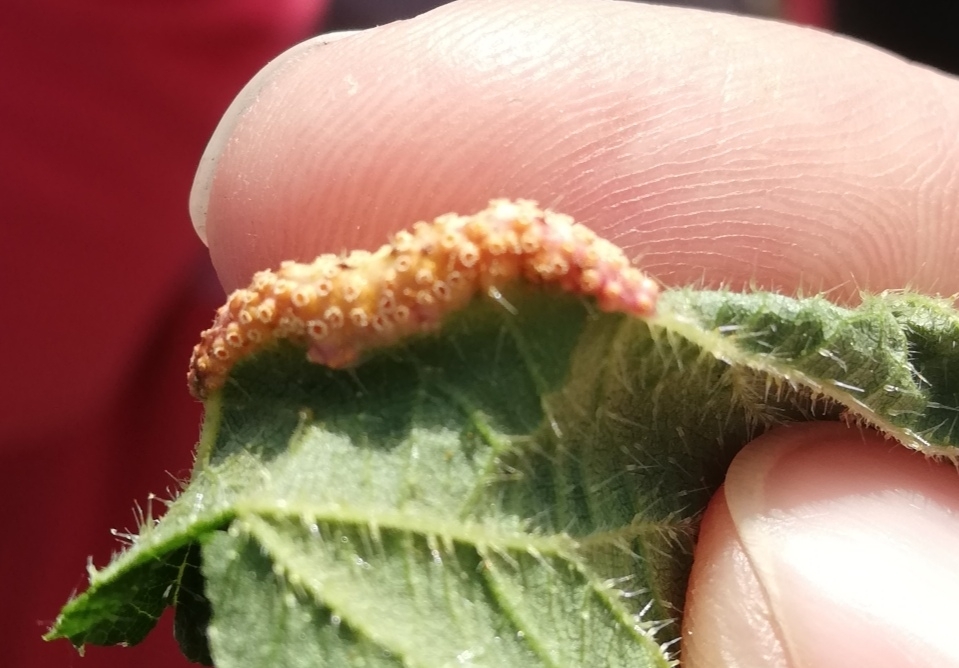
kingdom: Fungi
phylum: Basidiomycota
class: Pucciniomycetes
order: Pucciniales
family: Pucciniaceae
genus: Puccinia
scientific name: Puccinia urticata
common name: Nettle clustercup rust fungus
